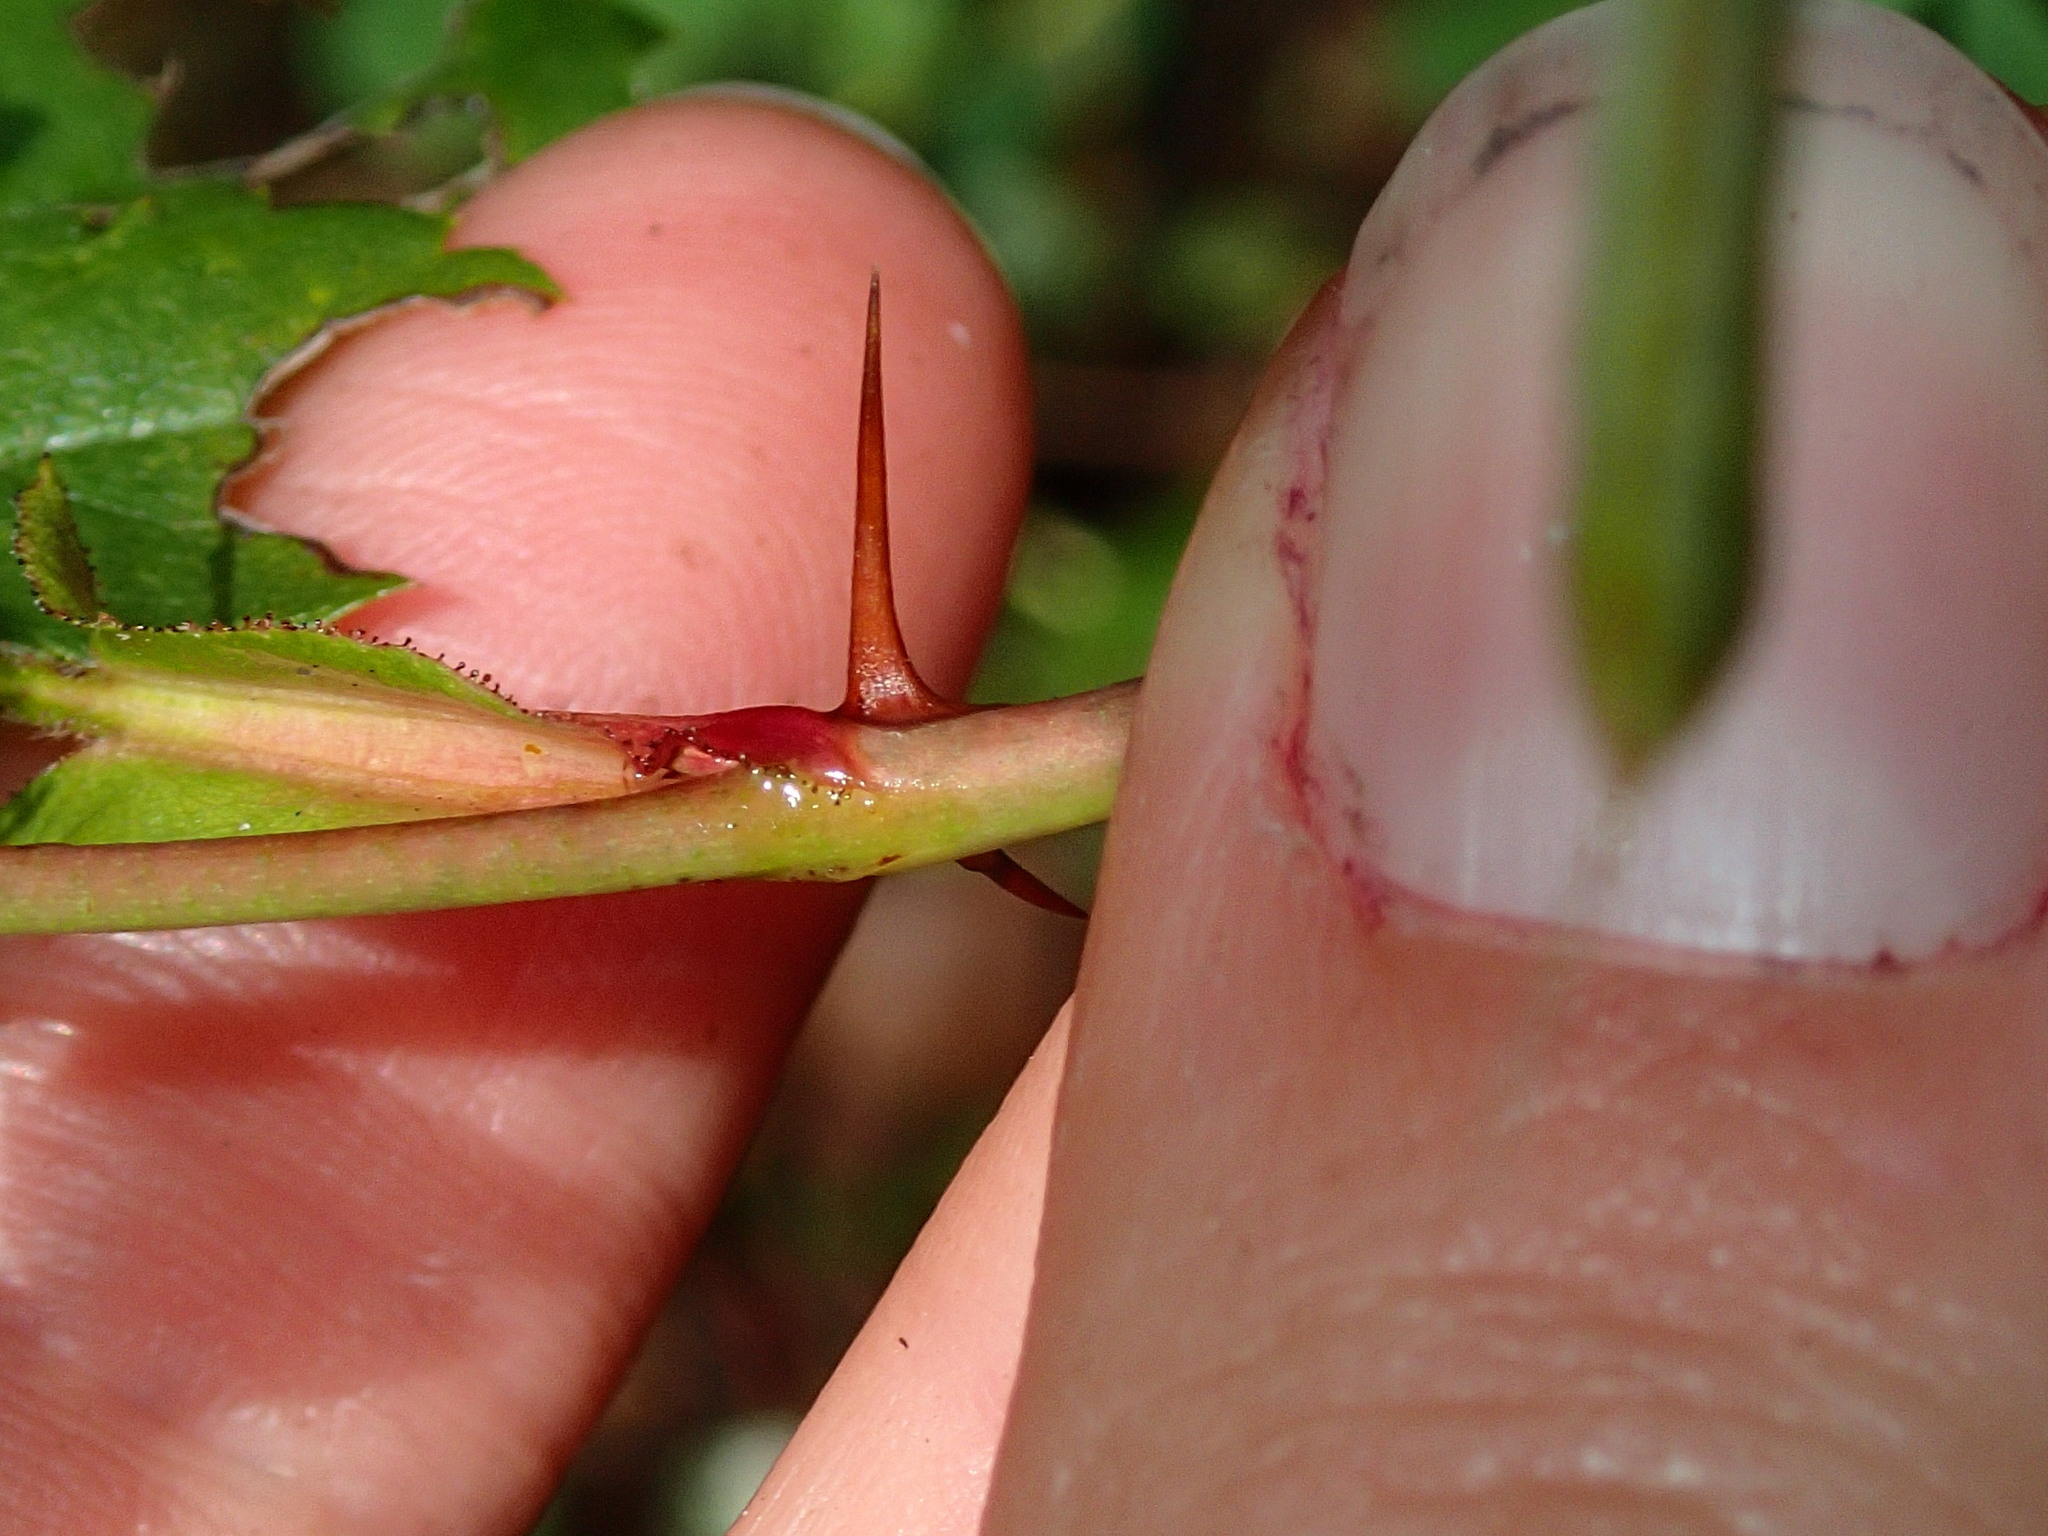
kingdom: Plantae
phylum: Tracheophyta
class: Magnoliopsida
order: Rosales
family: Rosaceae
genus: Rosa
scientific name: Rosa carolina
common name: Pasture rose
